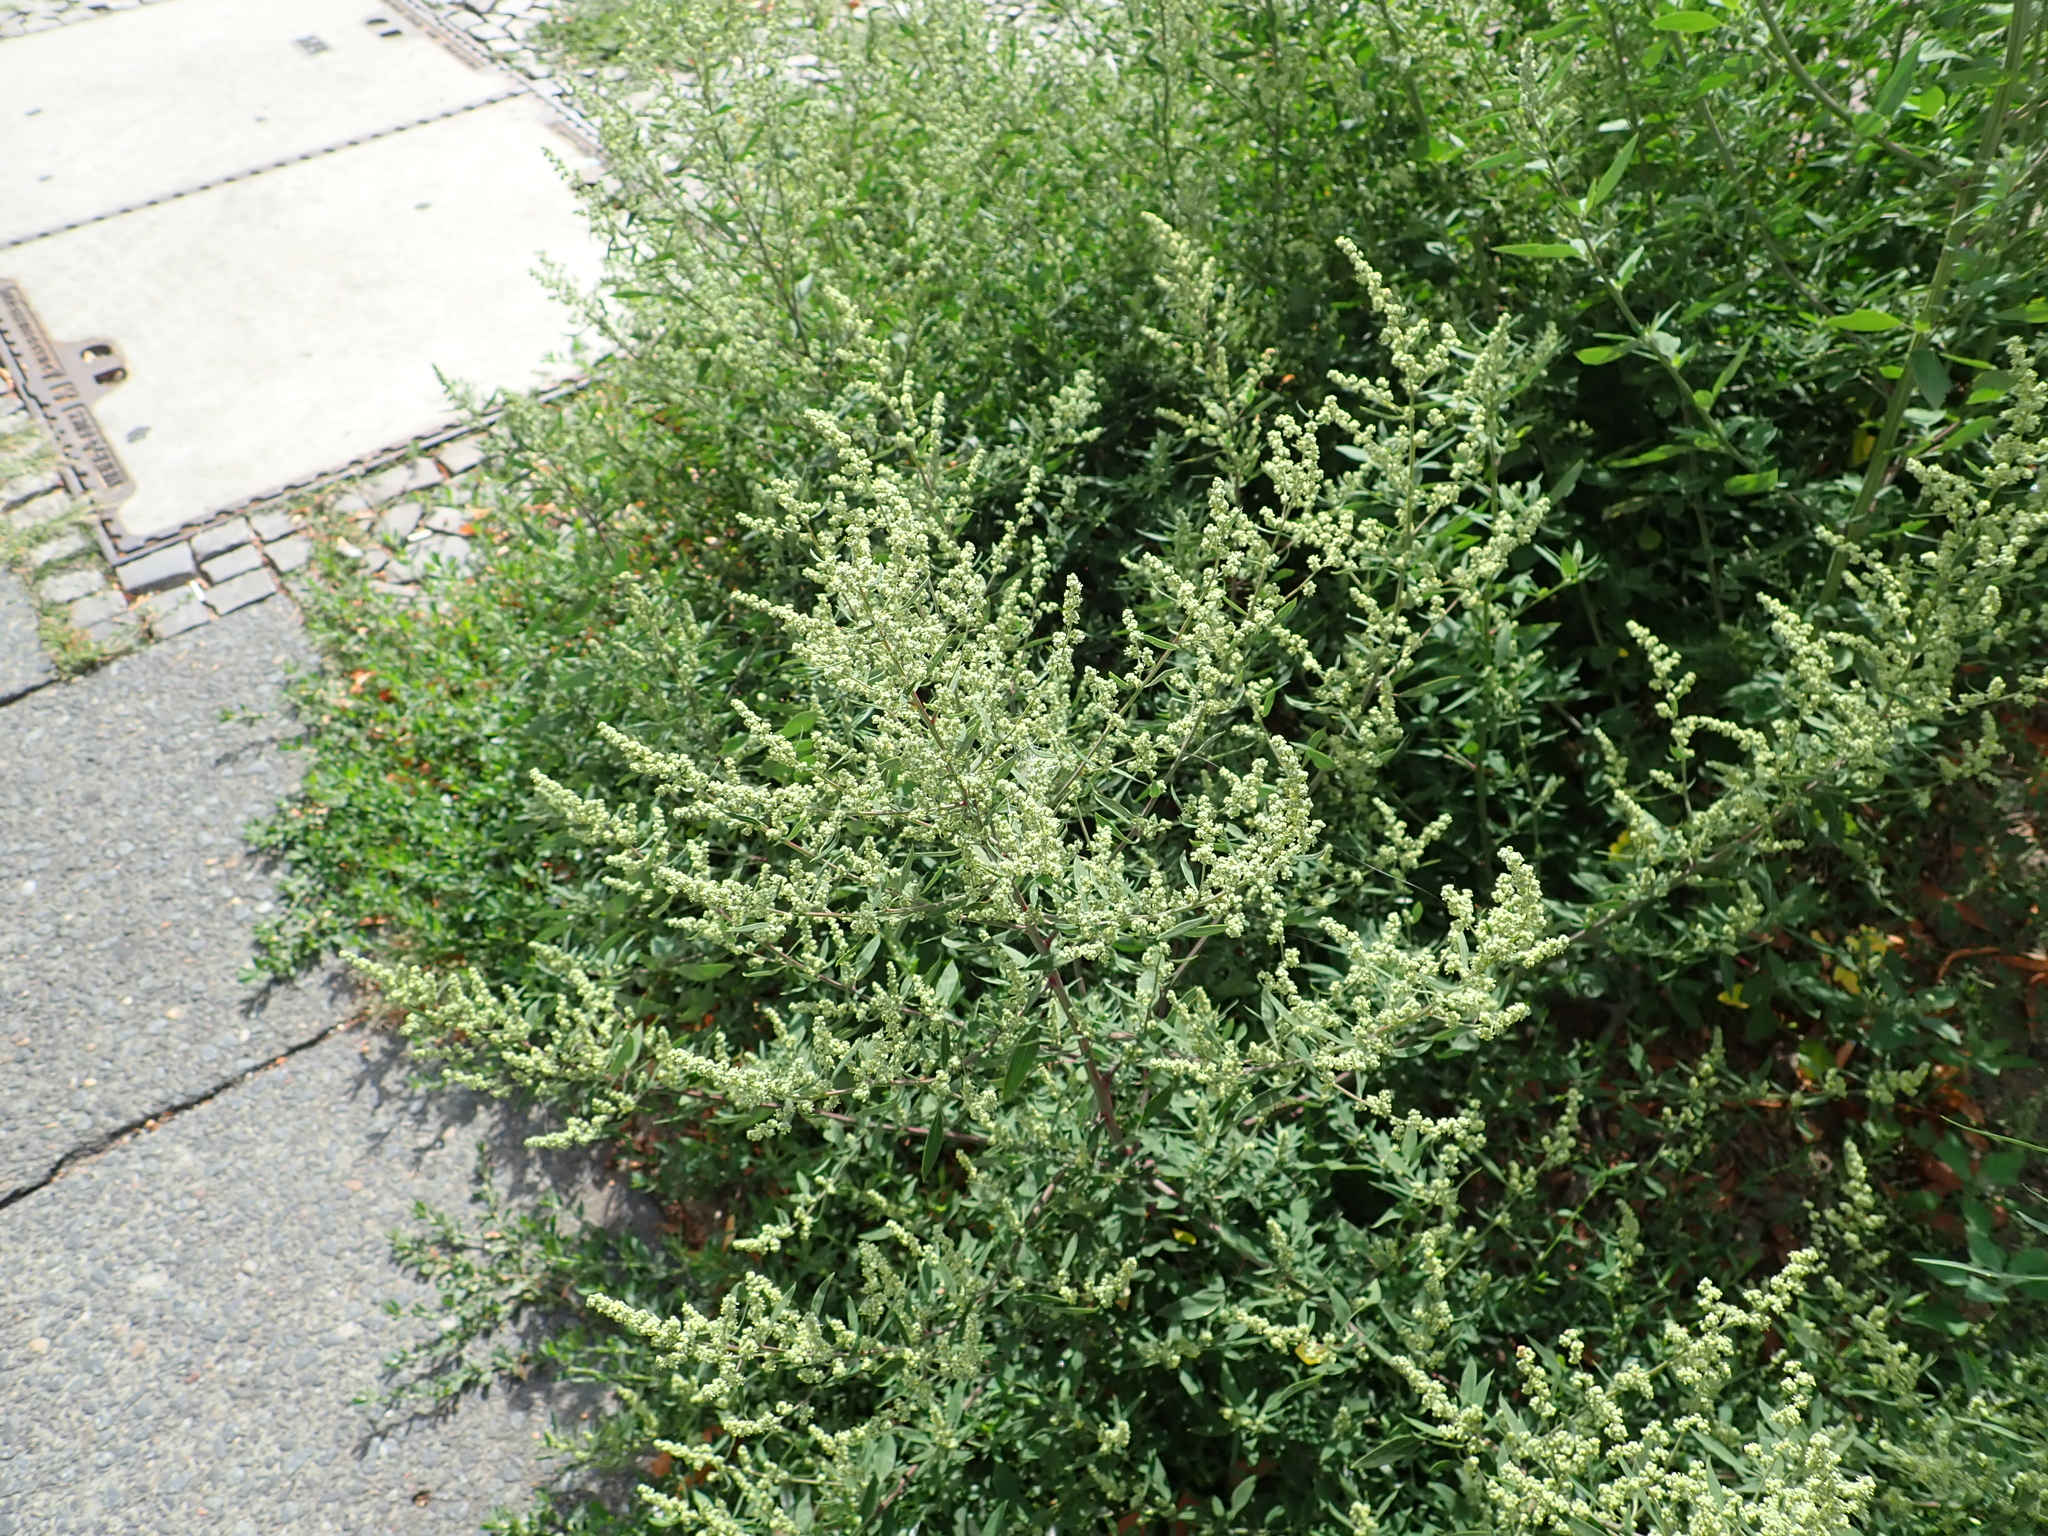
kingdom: Plantae
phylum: Tracheophyta
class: Magnoliopsida
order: Asterales
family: Asteraceae
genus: Artemisia
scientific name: Artemisia vulgaris
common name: Mugwort
